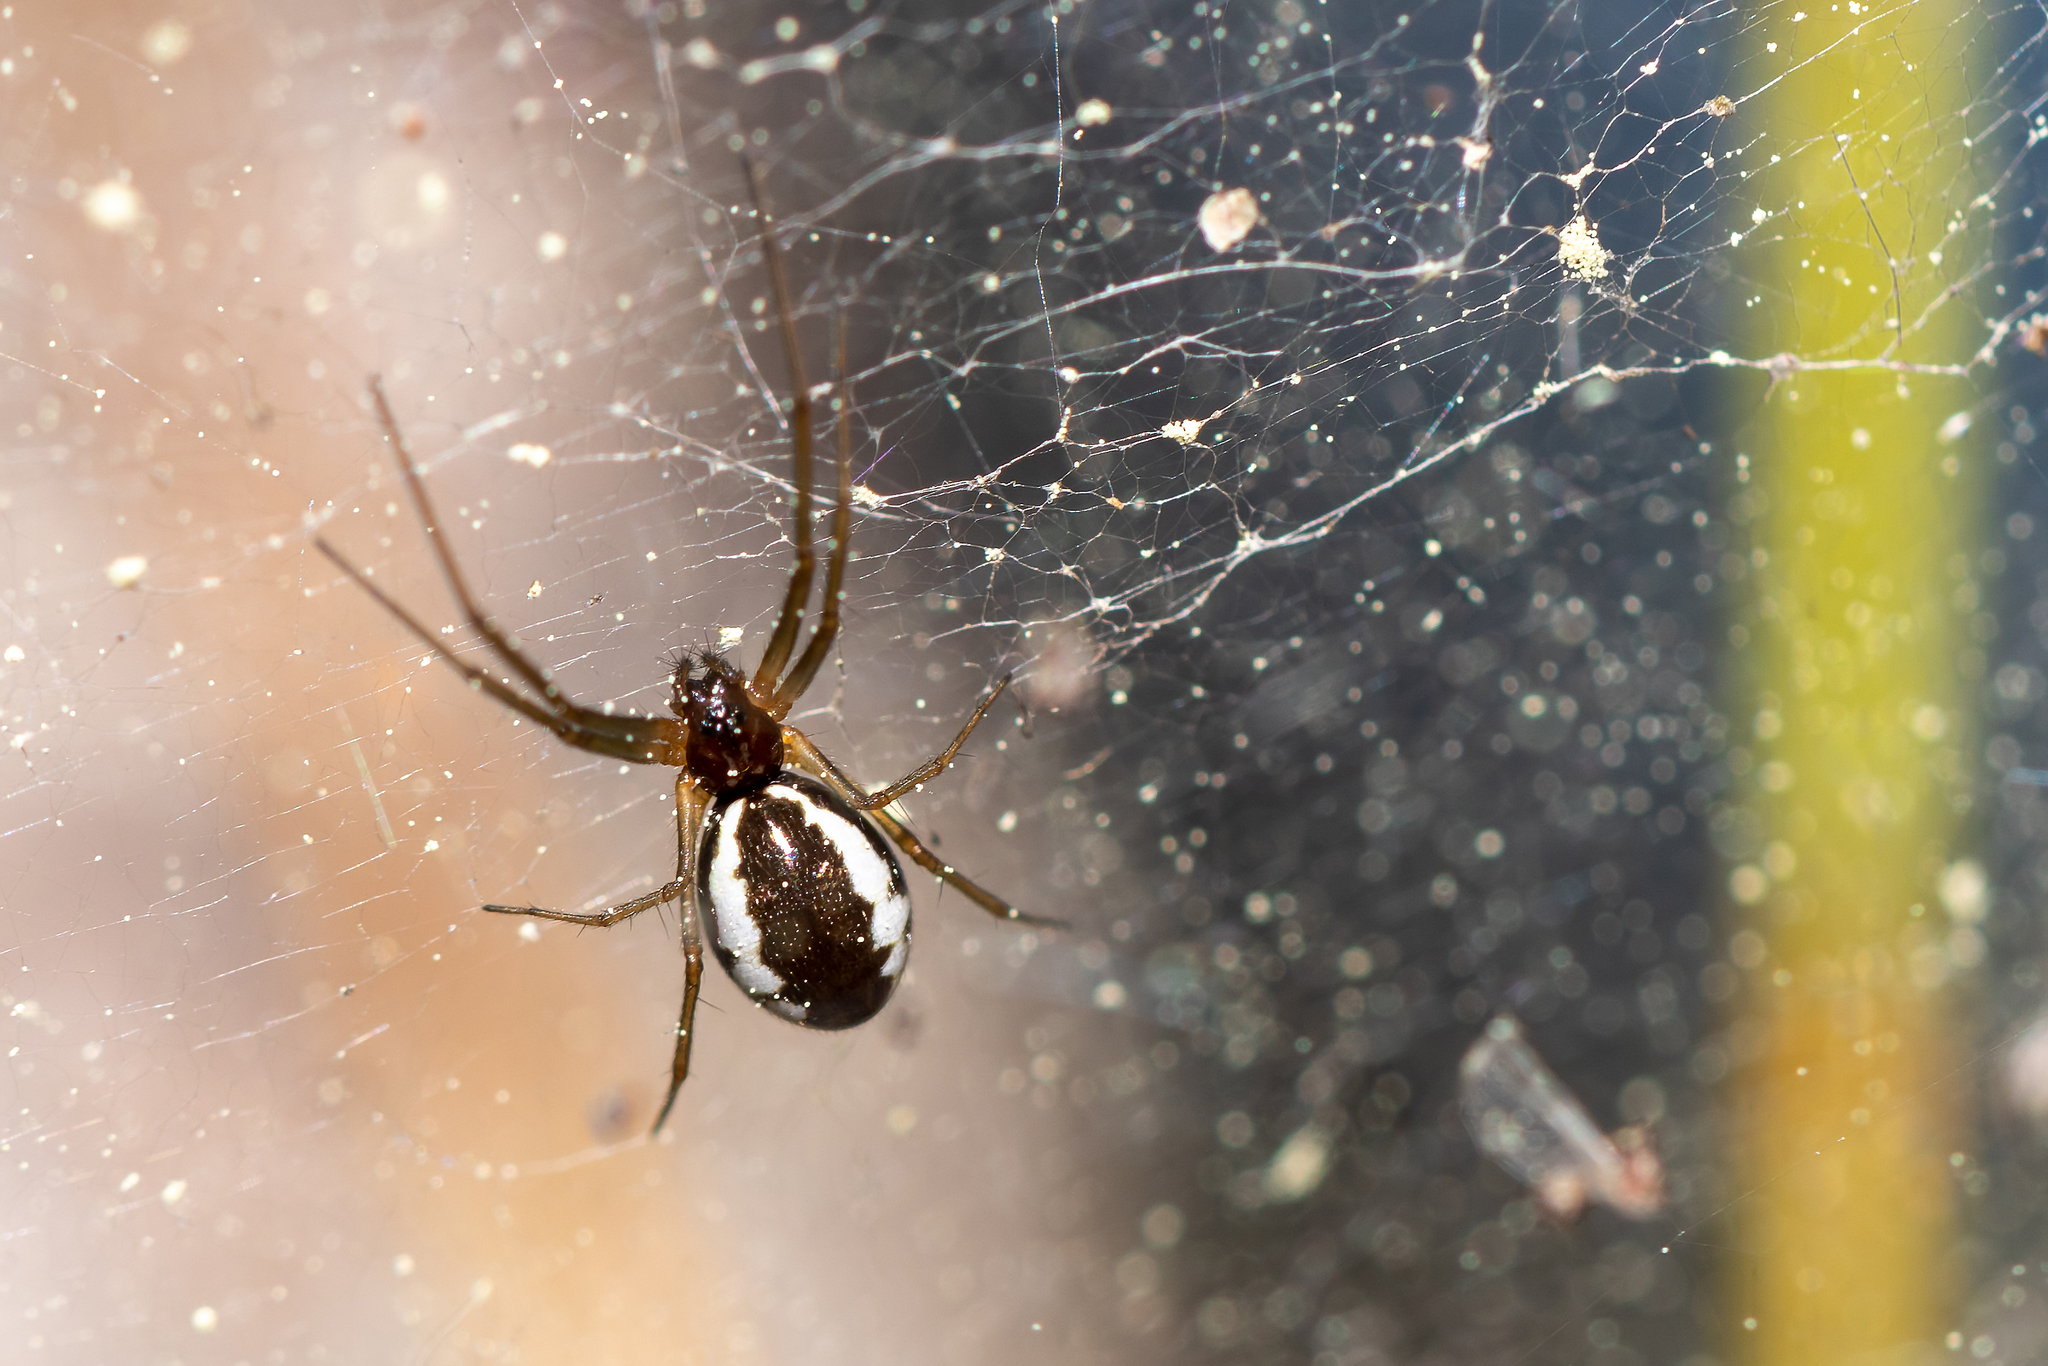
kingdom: Animalia
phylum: Arthropoda
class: Arachnida
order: Araneae
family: Linyphiidae
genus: Frontinella
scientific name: Frontinella pyramitela
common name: Bowl-and-doily spider
